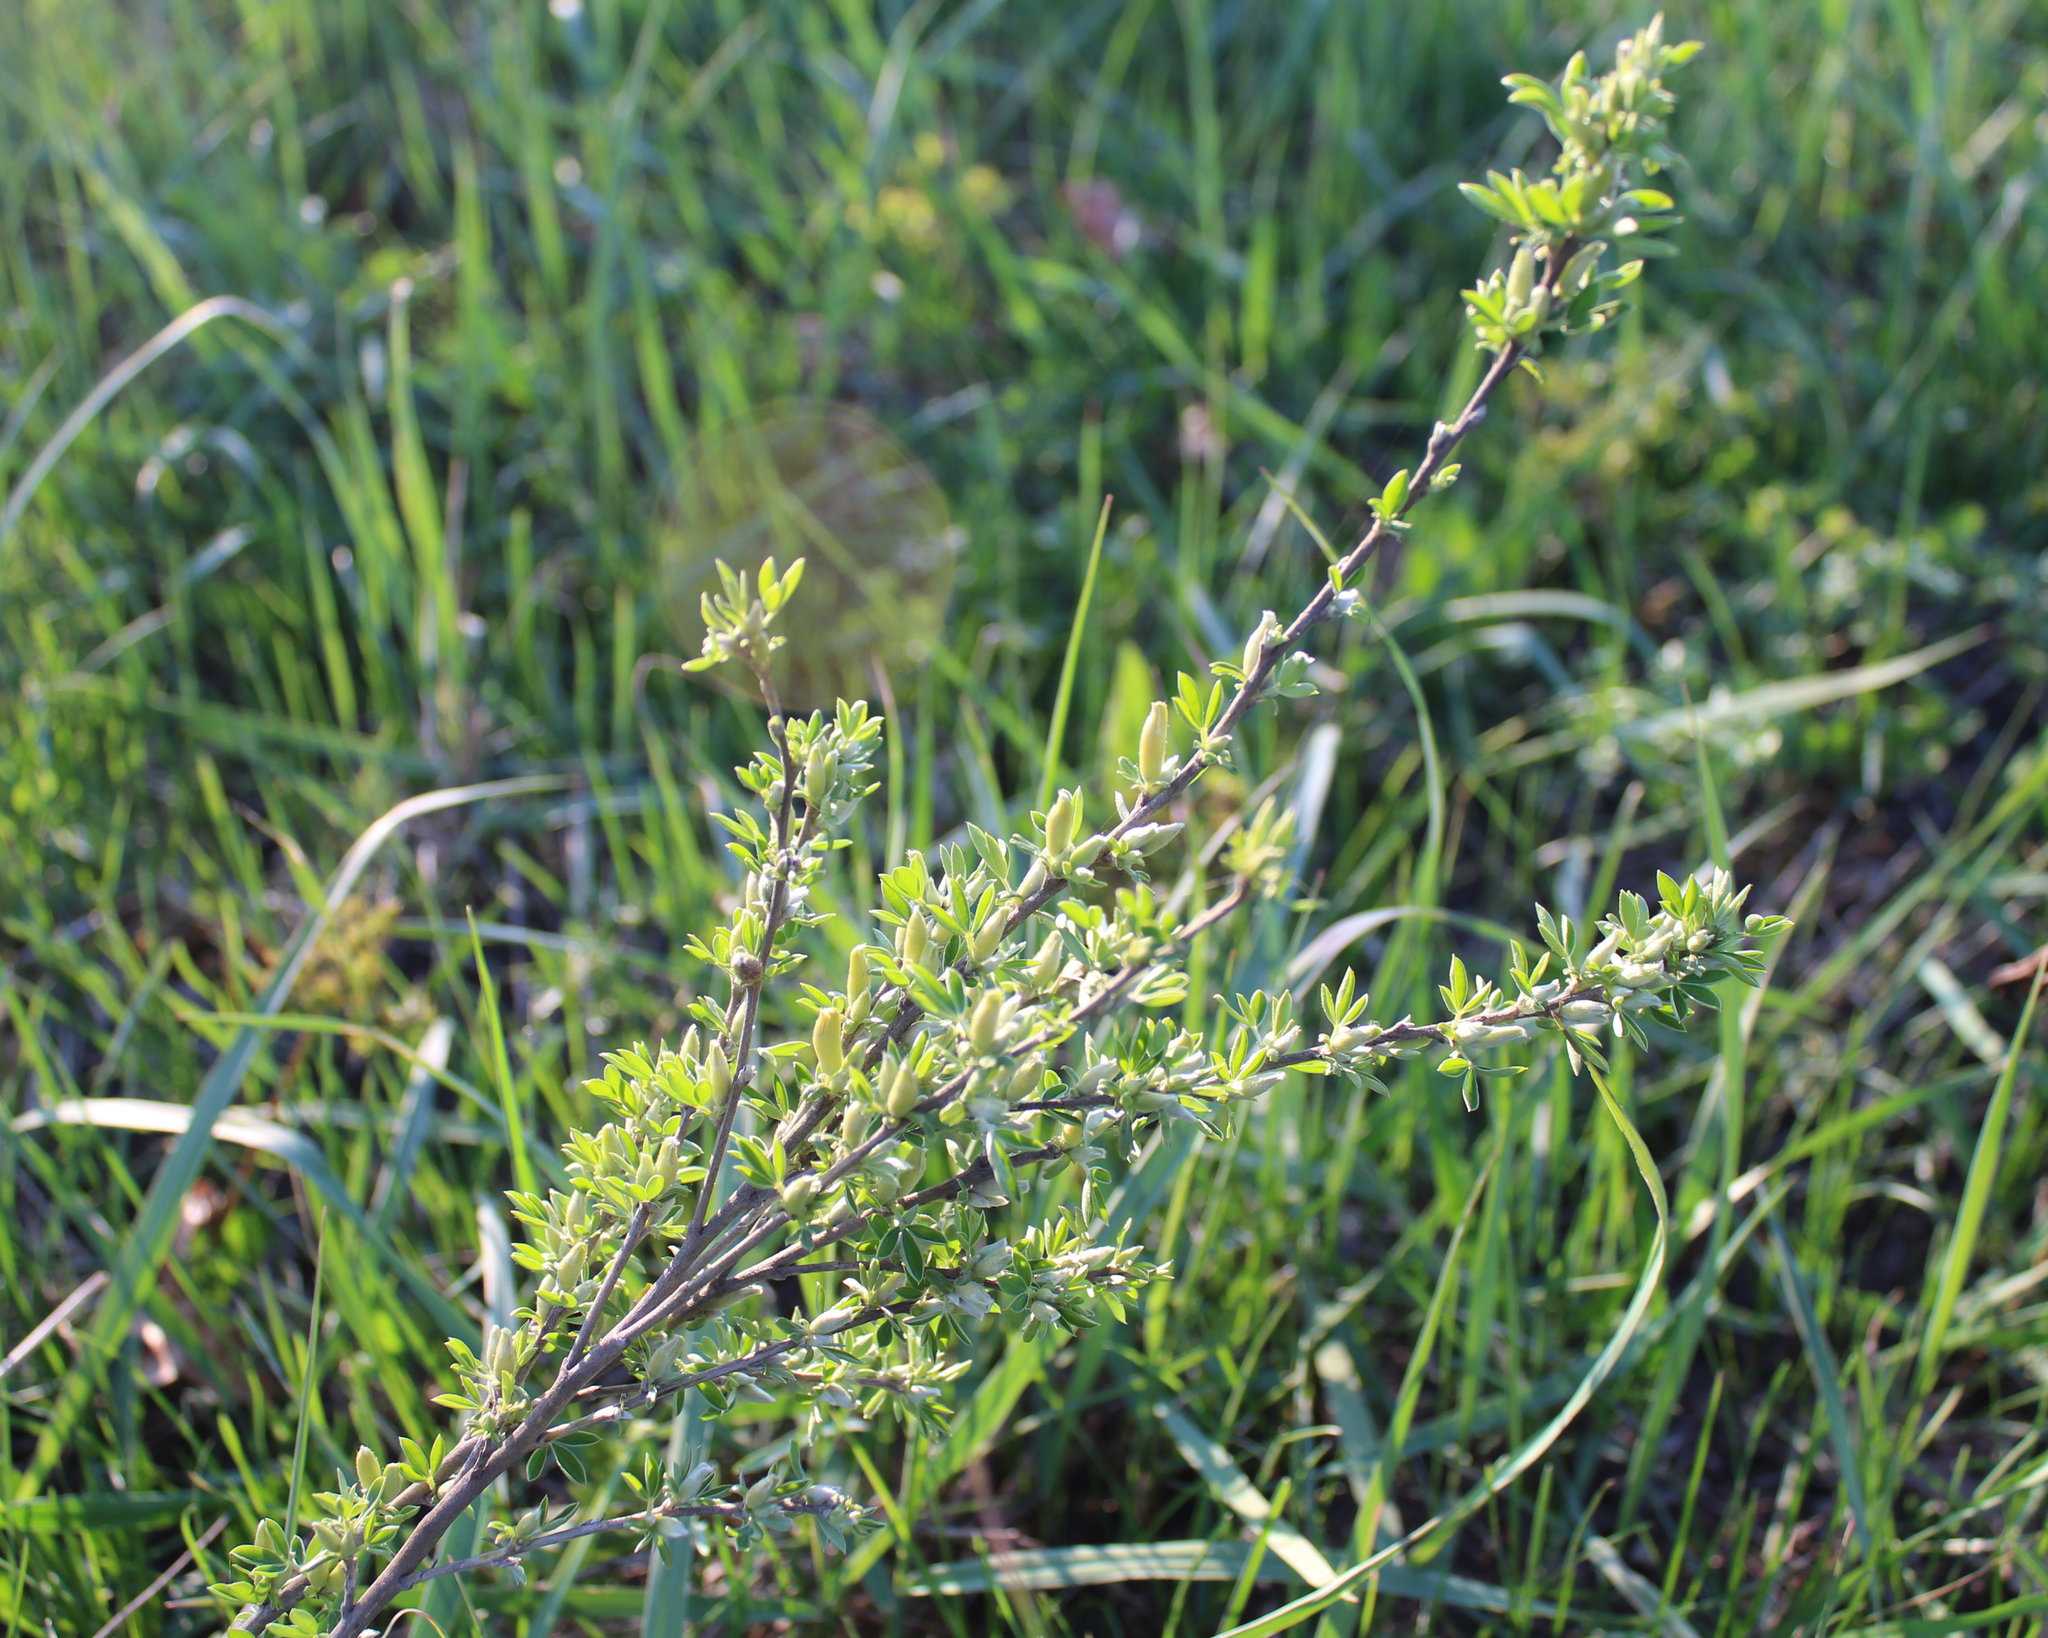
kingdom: Plantae
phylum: Tracheophyta
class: Magnoliopsida
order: Fabales
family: Fabaceae
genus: Chamaecytisus
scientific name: Chamaecytisus ruthenicus
